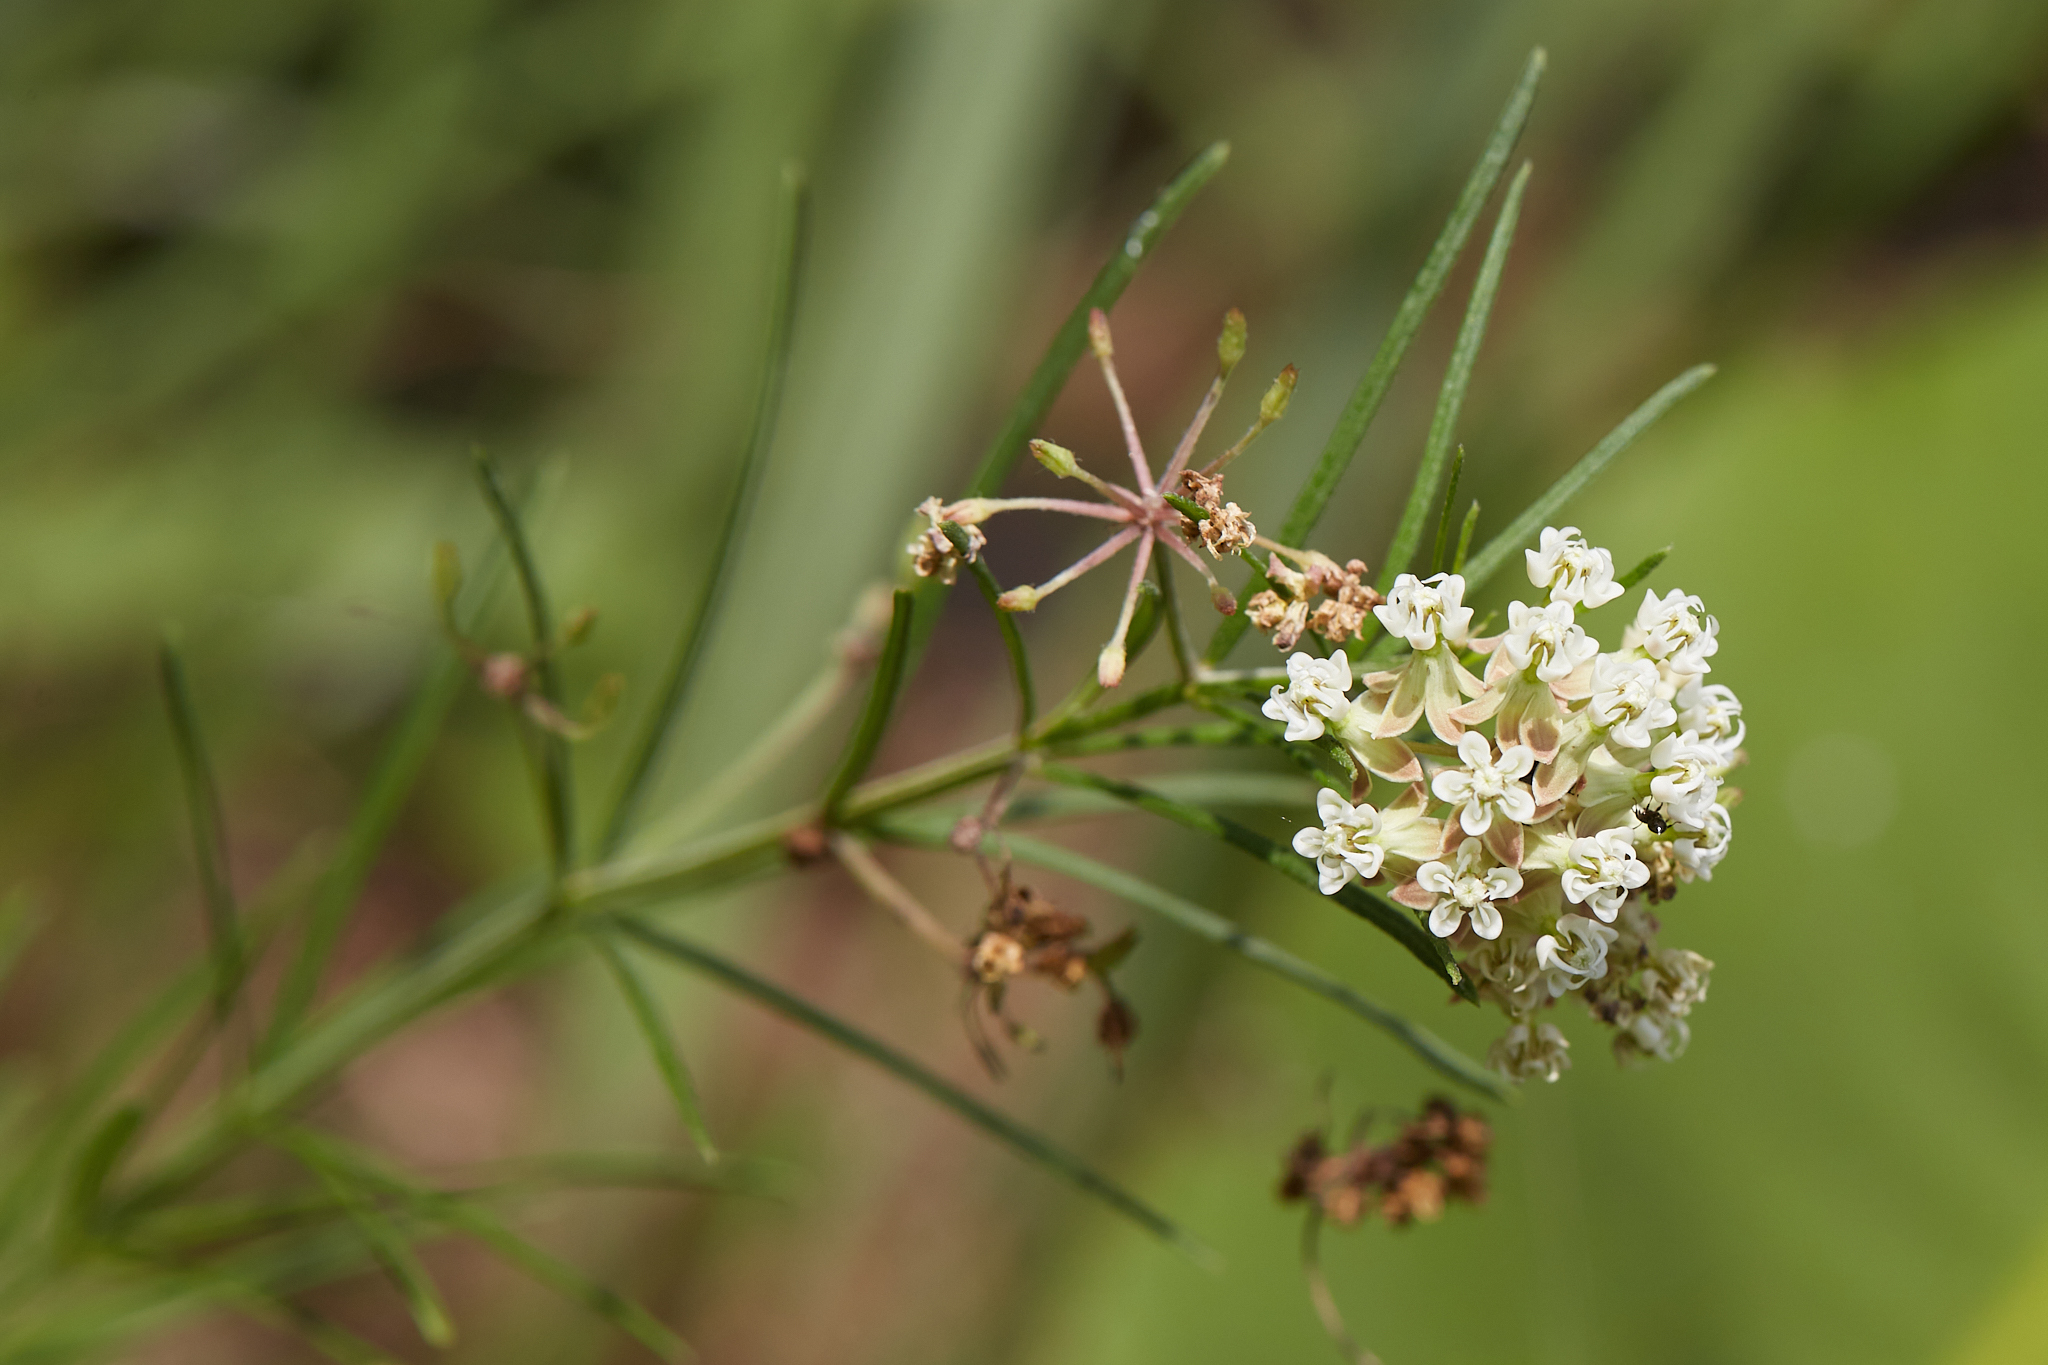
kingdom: Plantae
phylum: Tracheophyta
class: Magnoliopsida
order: Gentianales
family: Apocynaceae
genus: Asclepias
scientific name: Asclepias verticillata
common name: Eastern whorled milkweed
